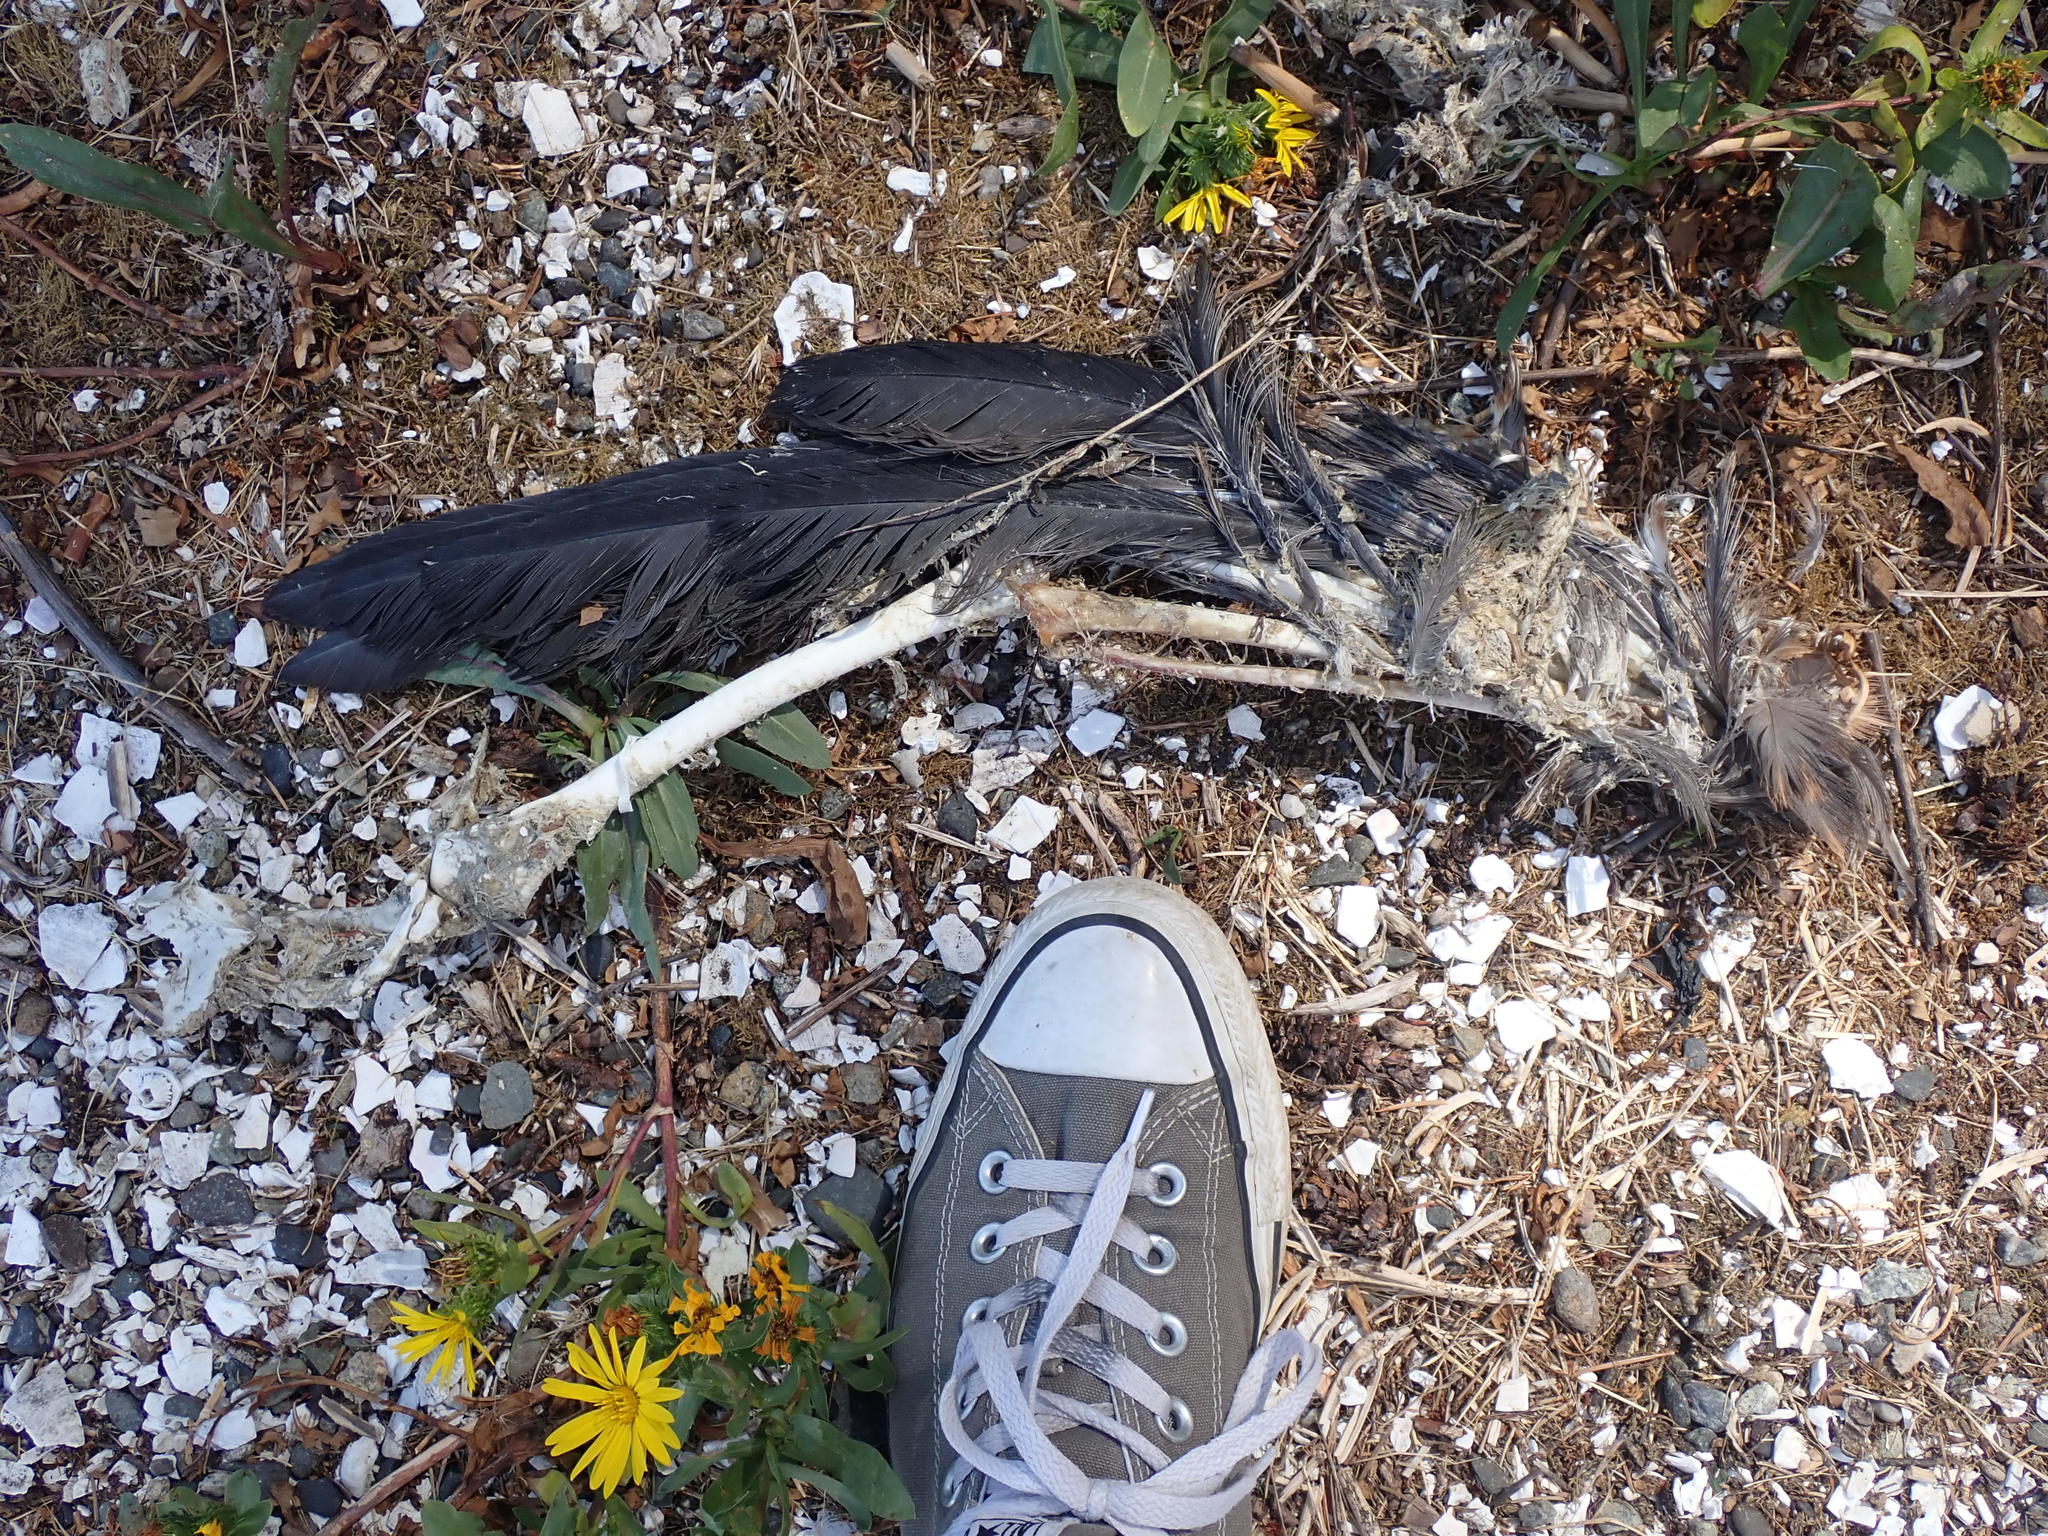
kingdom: Animalia
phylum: Chordata
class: Aves
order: Pelecaniformes
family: Ardeidae
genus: Ardea
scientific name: Ardea herodias
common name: Great blue heron
